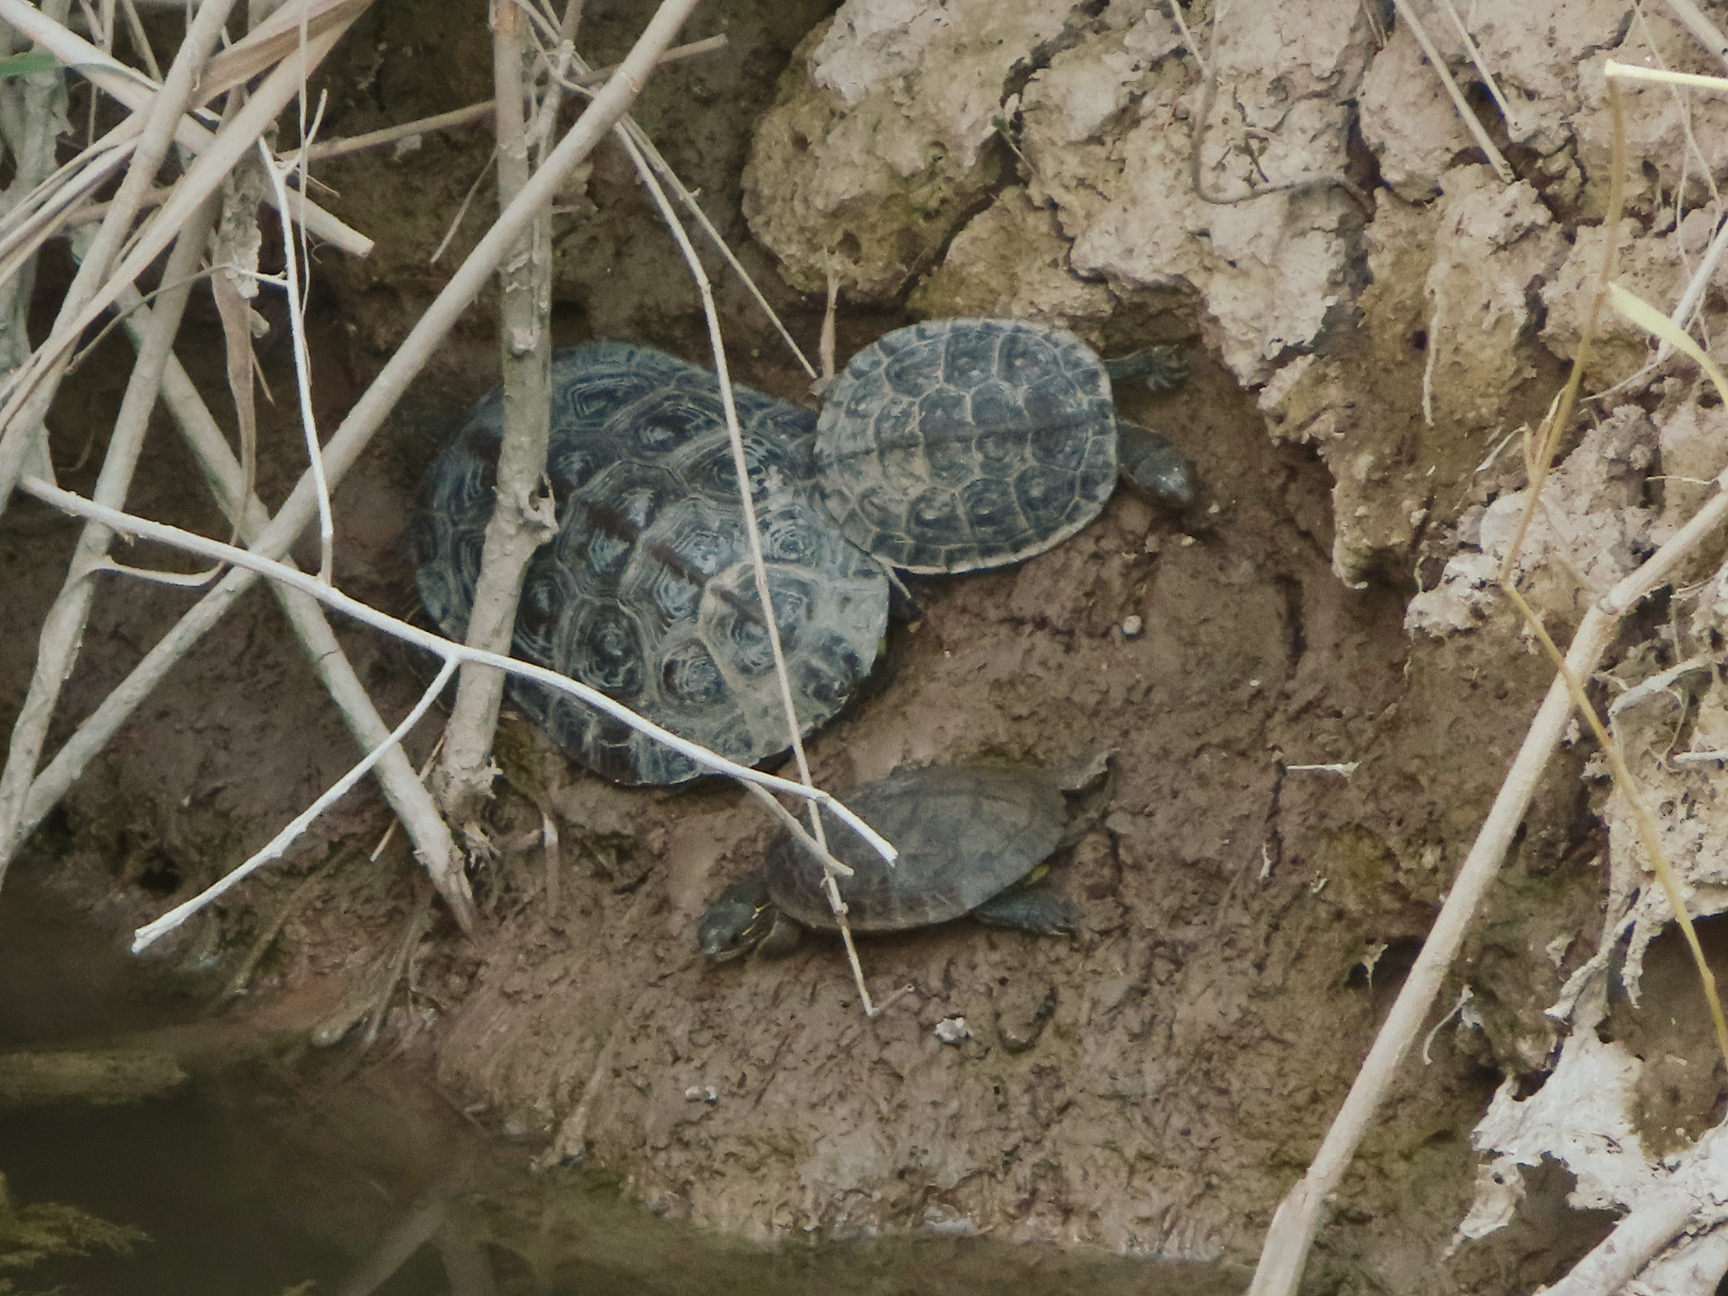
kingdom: Animalia
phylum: Chordata
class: Testudines
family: Geoemydidae
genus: Mauremys
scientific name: Mauremys caspica
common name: Caspian turtle
